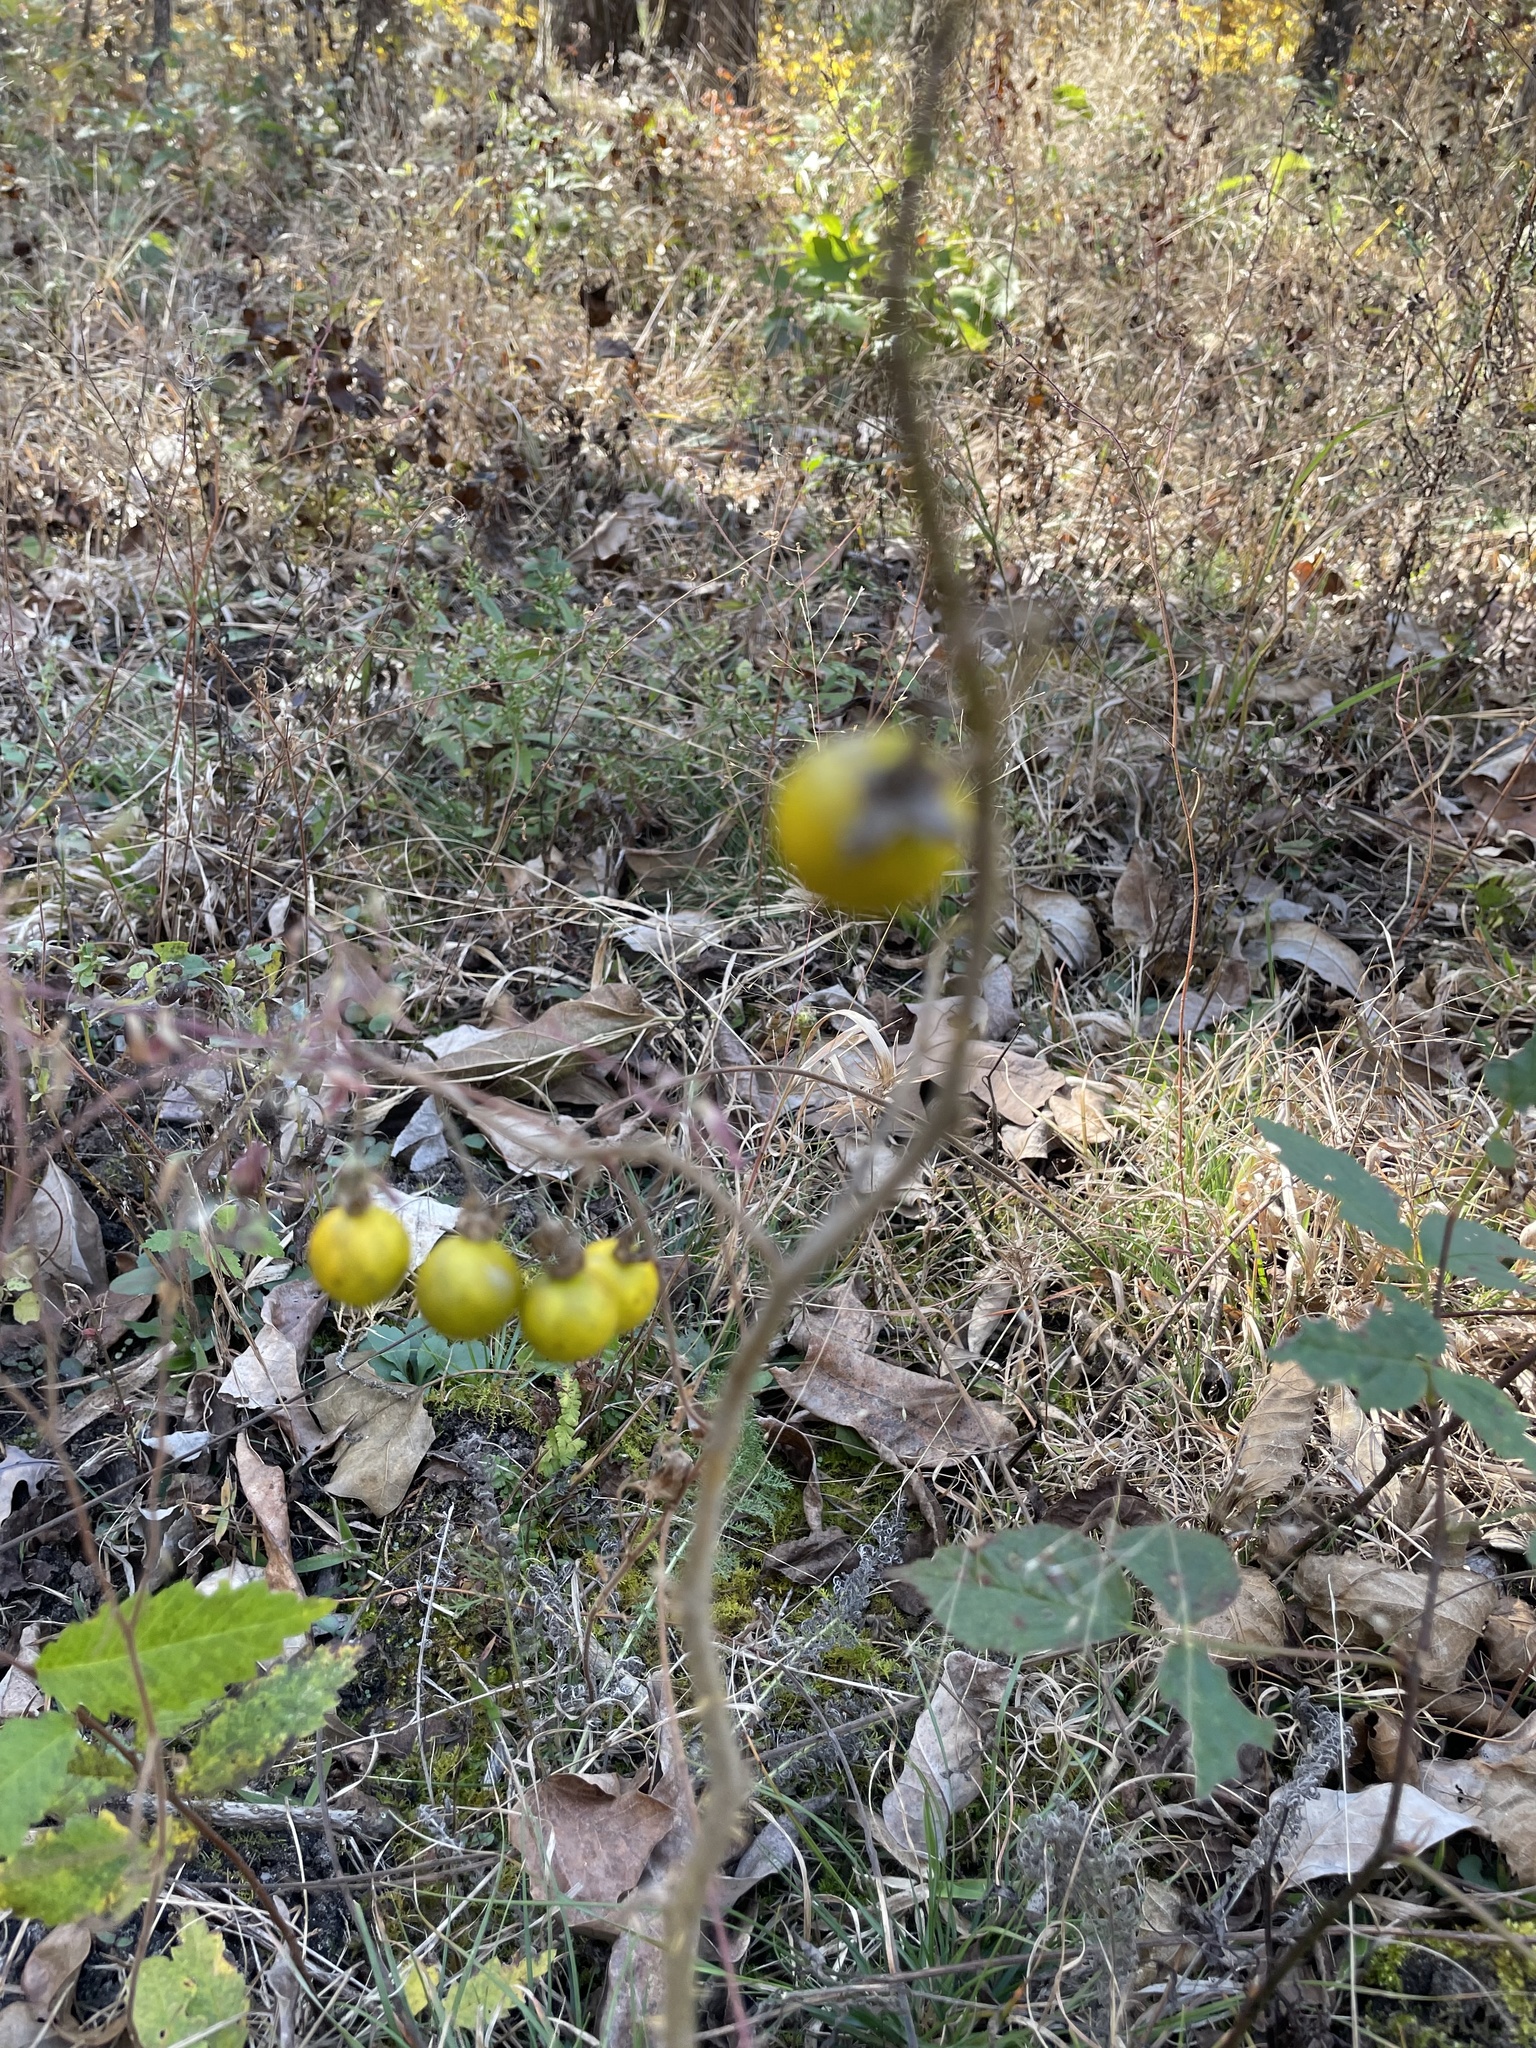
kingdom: Plantae
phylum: Tracheophyta
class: Magnoliopsida
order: Solanales
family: Solanaceae
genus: Solanum
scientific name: Solanum carolinense
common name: Horse-nettle
